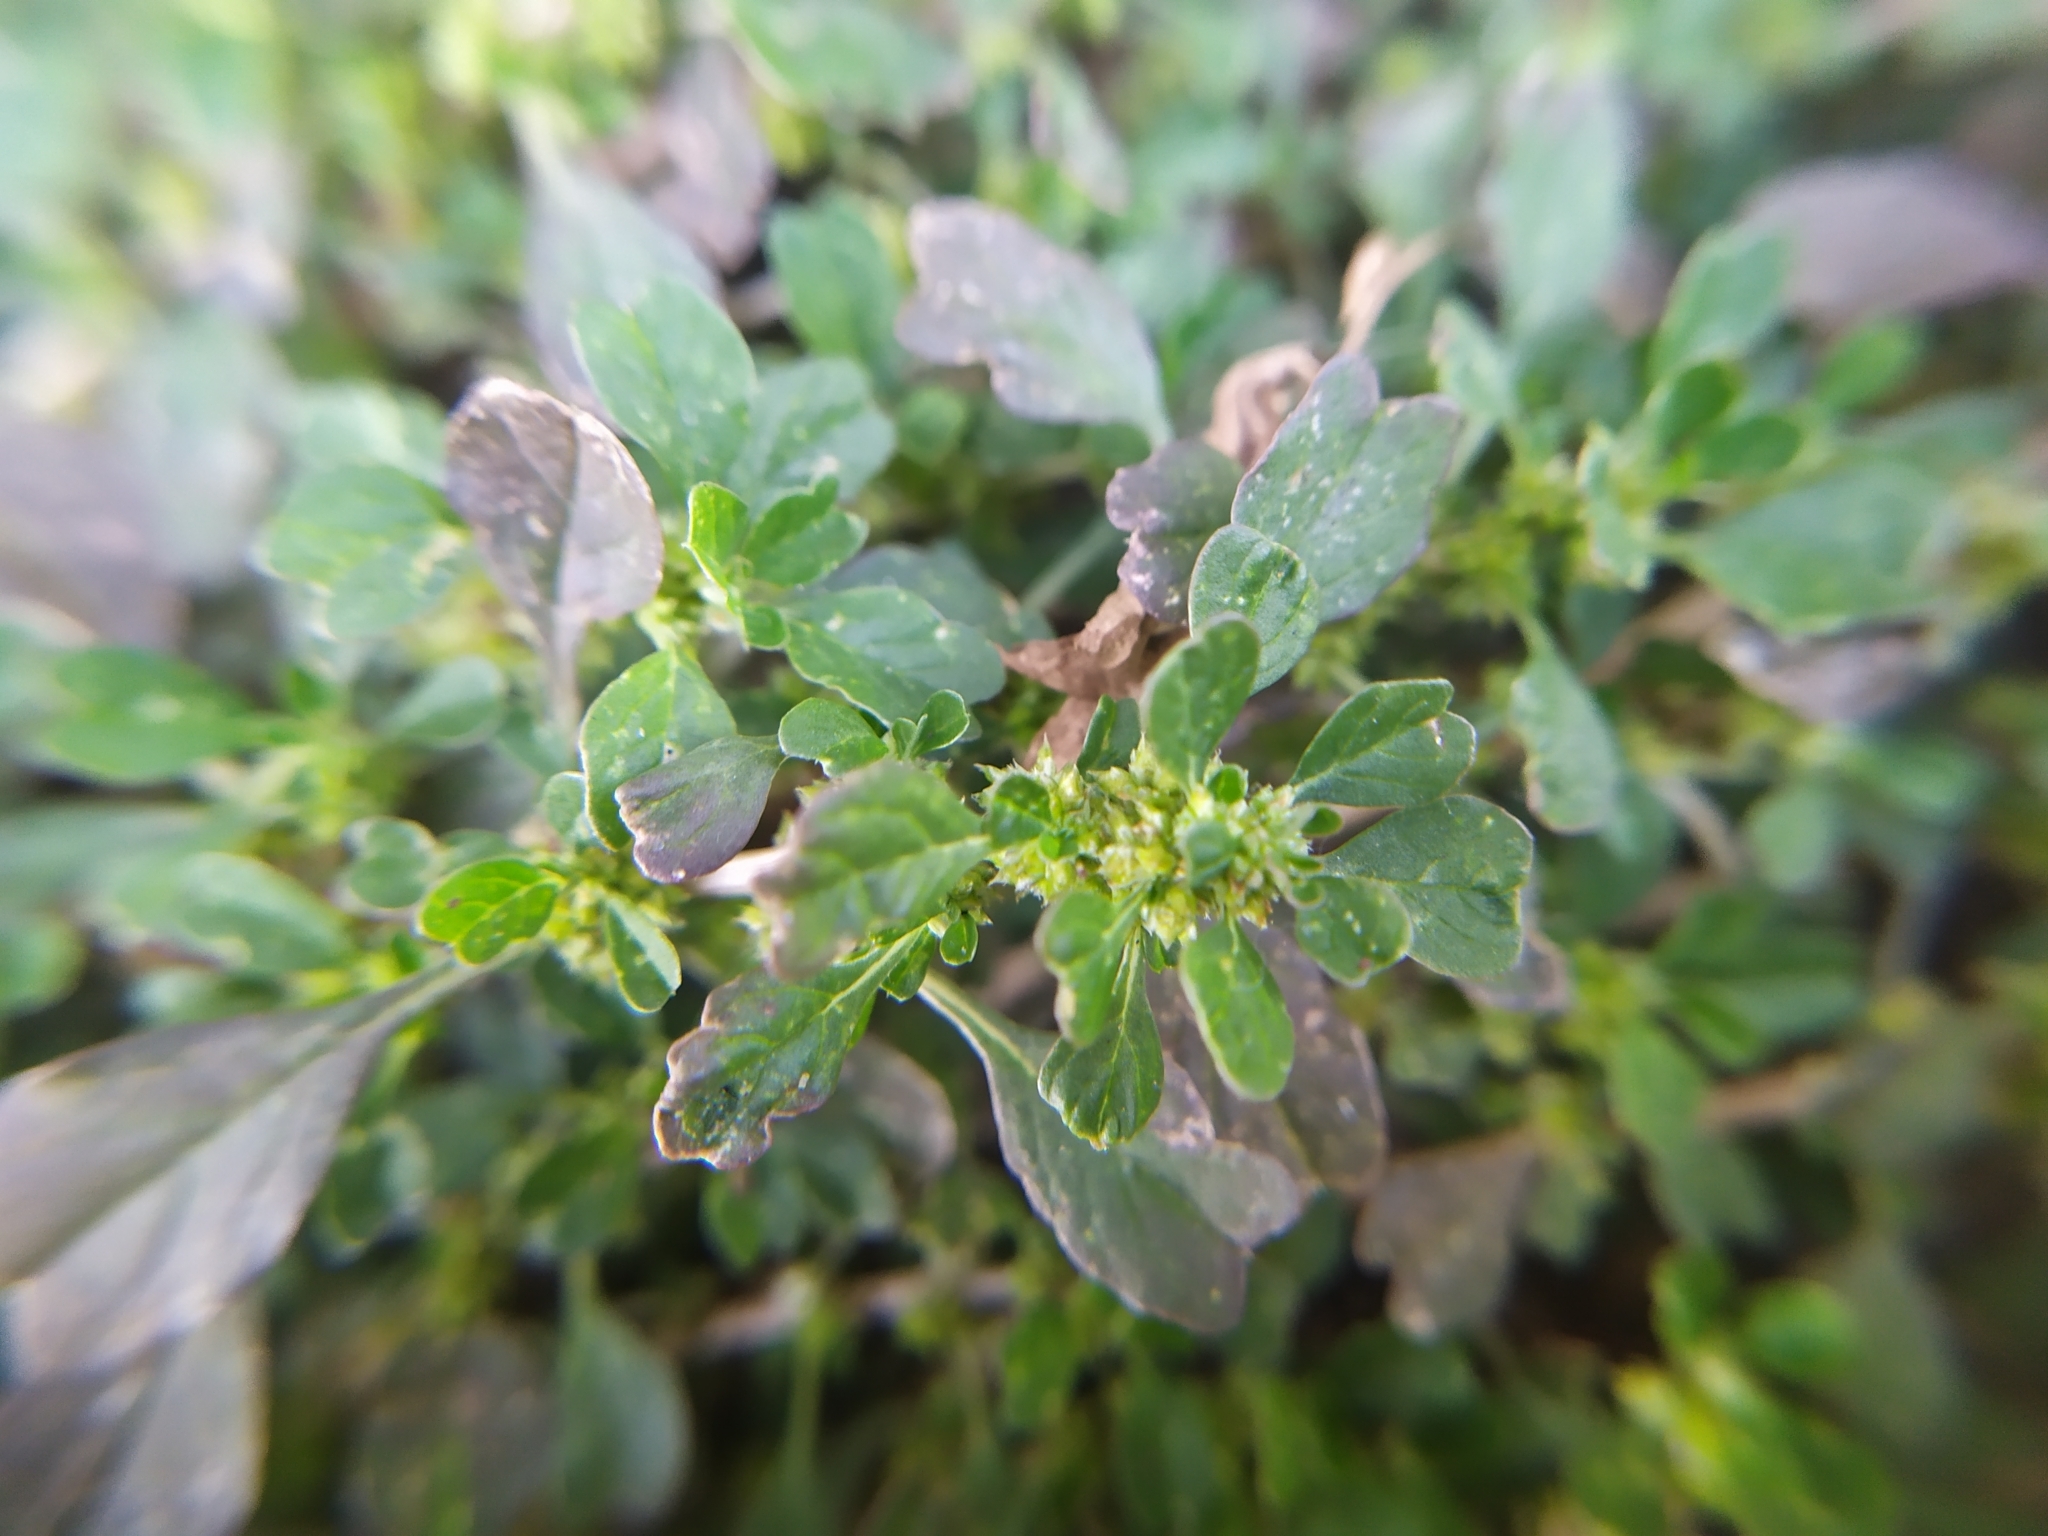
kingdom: Plantae
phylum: Tracheophyta
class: Magnoliopsida
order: Caryophyllales
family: Amaranthaceae
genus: Amaranthus
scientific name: Amaranthus emarginatus
